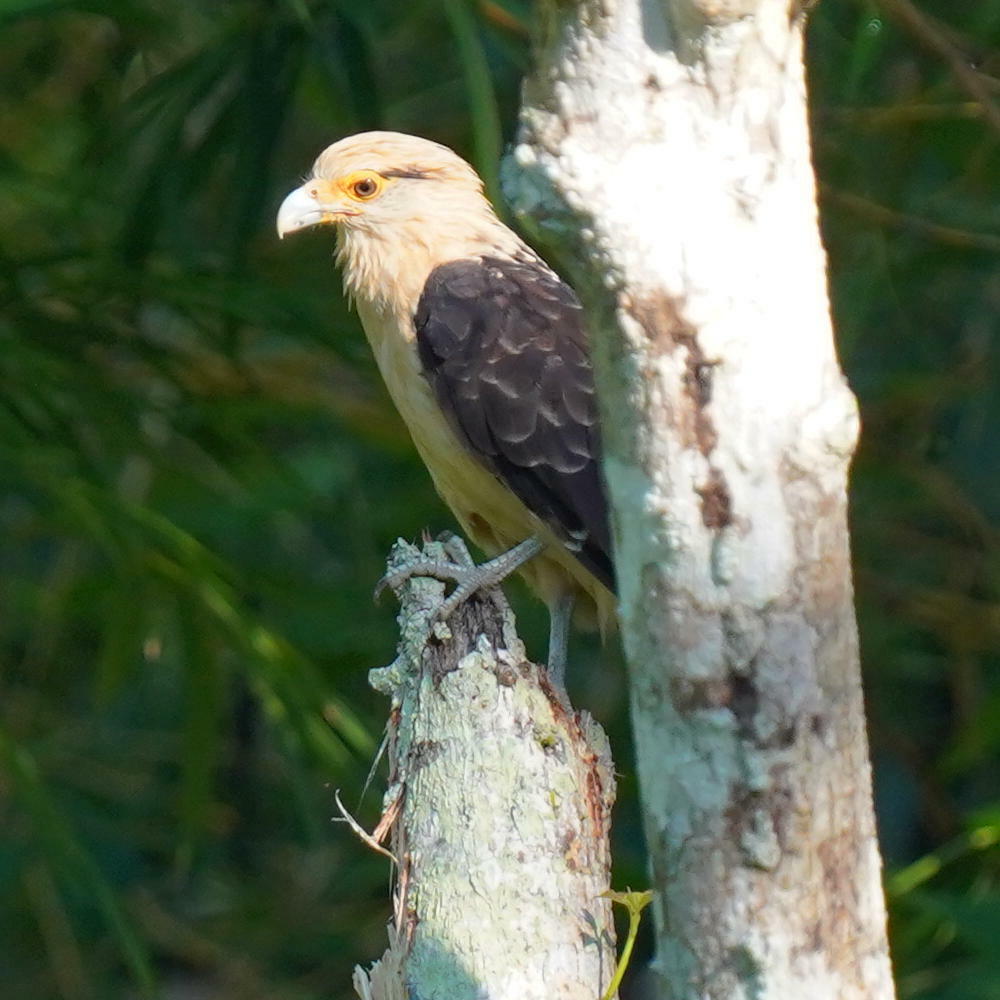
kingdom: Animalia
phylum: Chordata
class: Aves
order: Falconiformes
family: Falconidae
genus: Daptrius
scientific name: Daptrius
